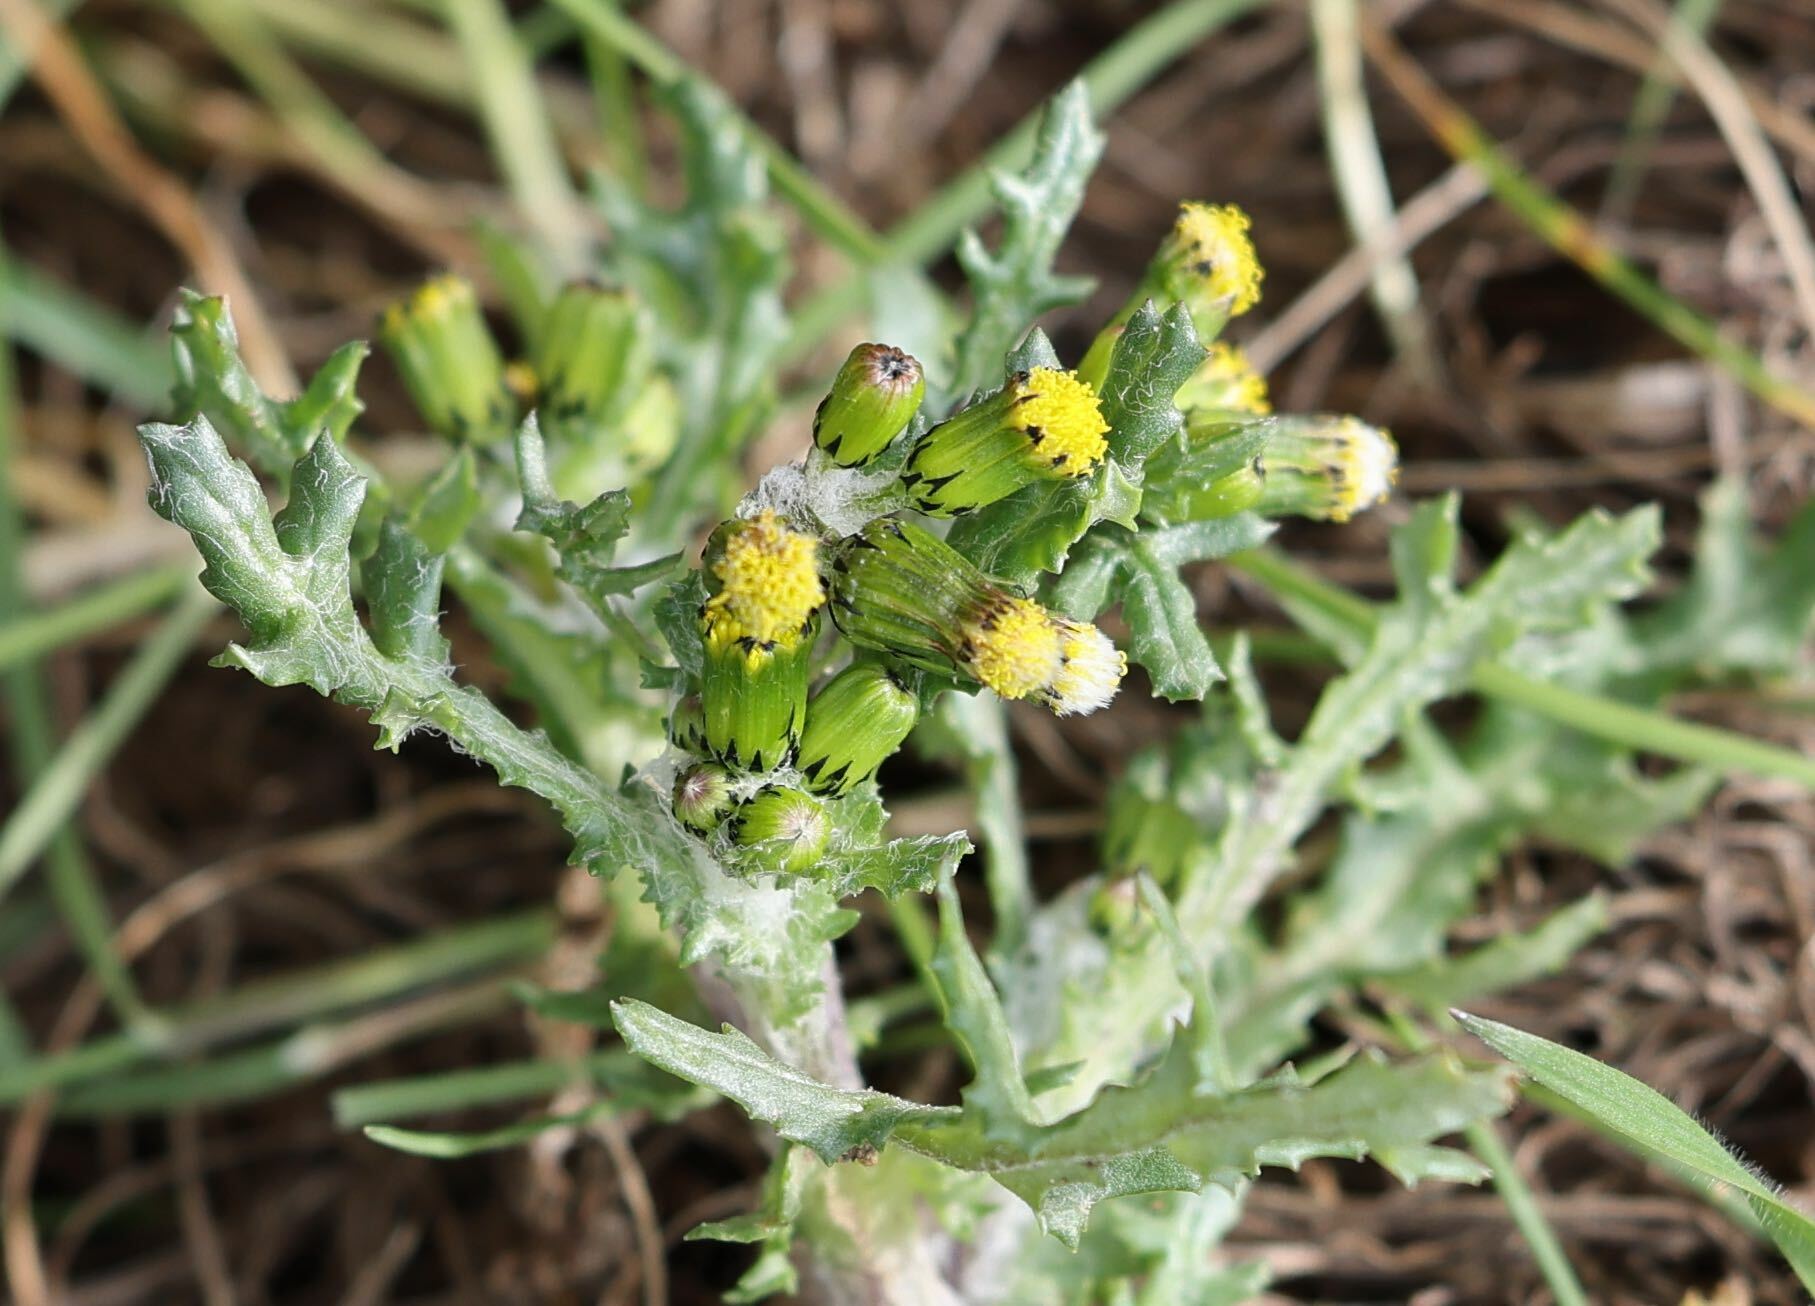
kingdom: Plantae
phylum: Tracheophyta
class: Magnoliopsida
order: Asterales
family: Asteraceae
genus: Senecio
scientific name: Senecio vulgaris
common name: Old-man-in-the-spring
